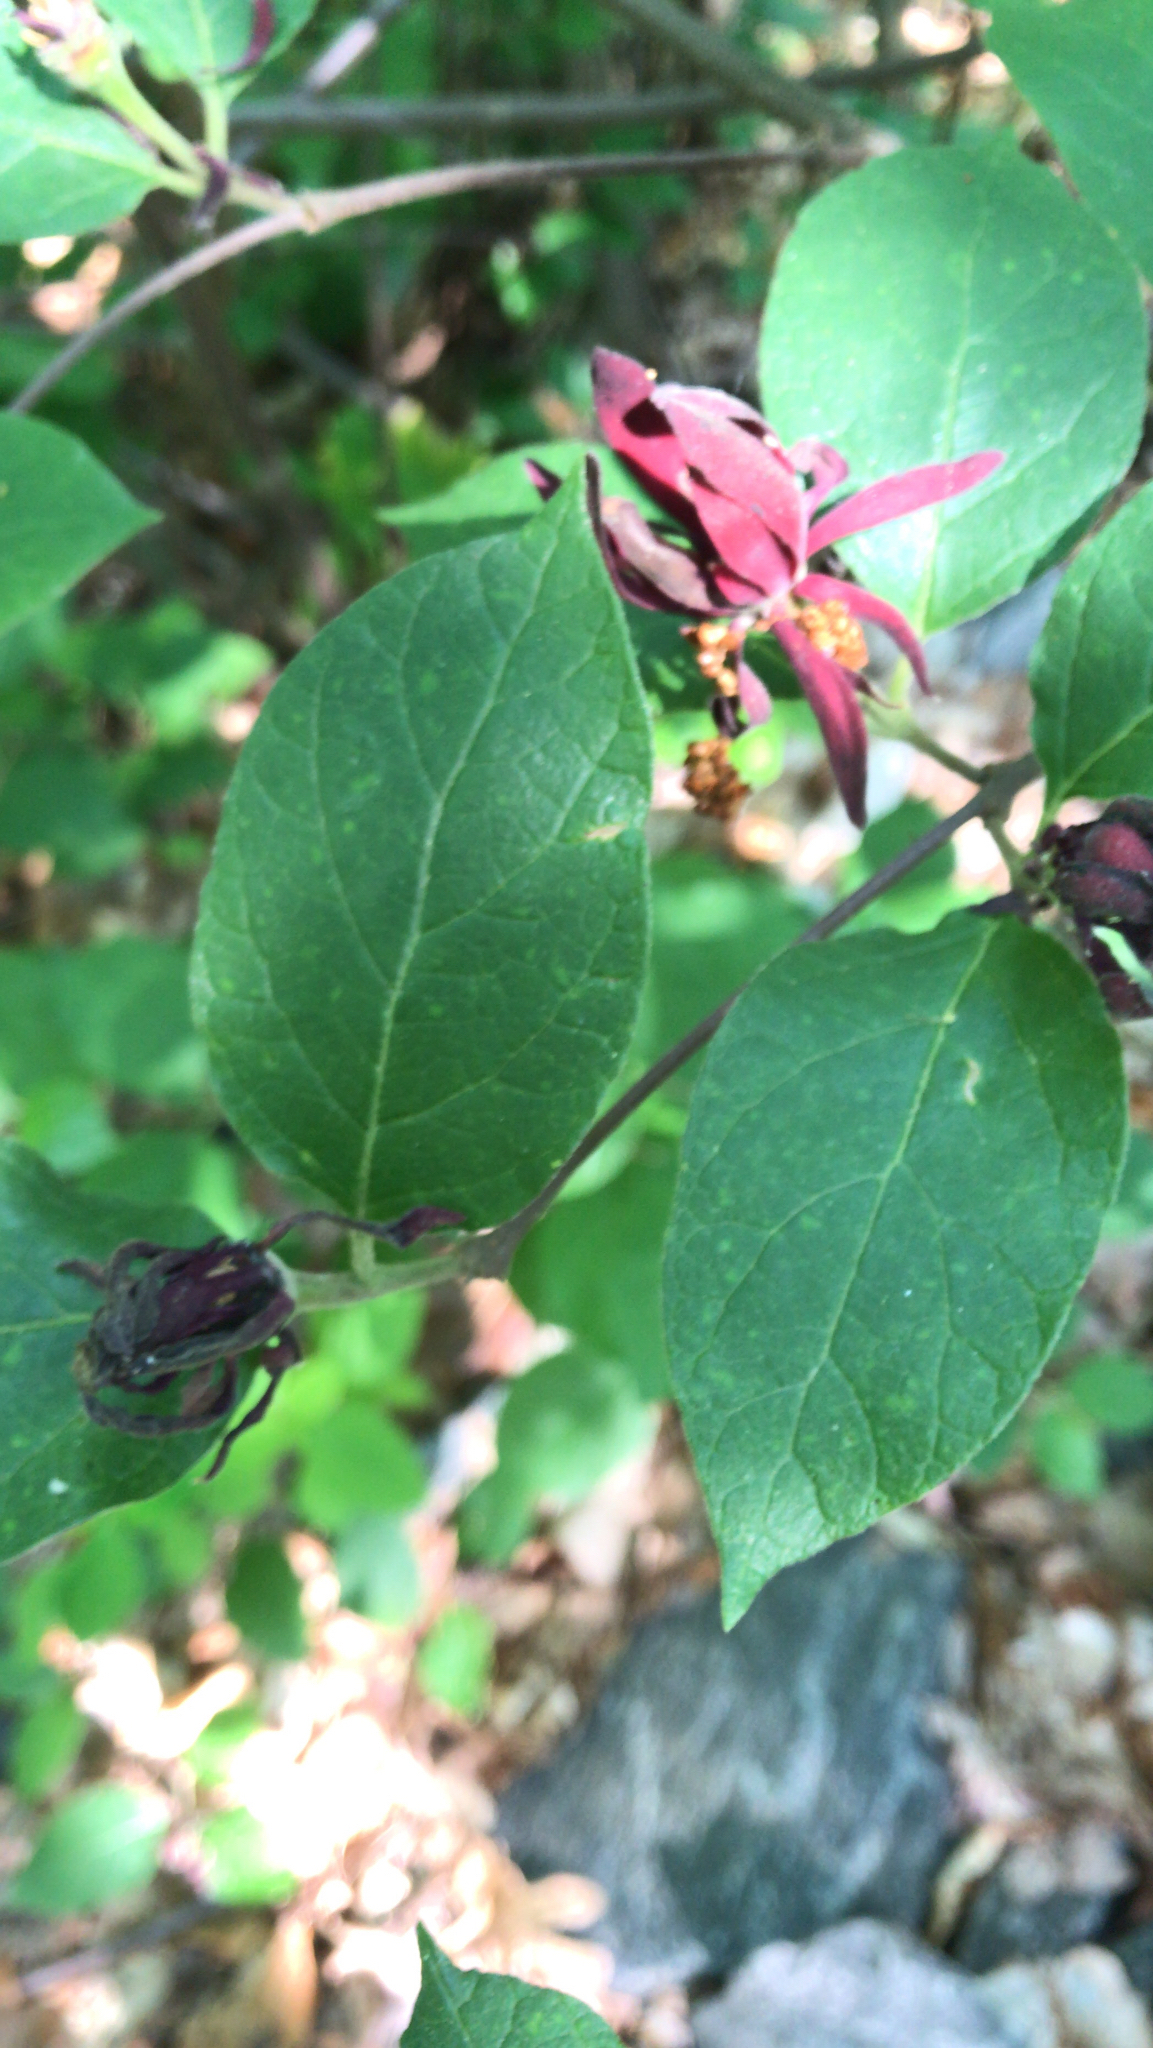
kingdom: Plantae
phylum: Tracheophyta
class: Magnoliopsida
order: Laurales
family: Calycanthaceae
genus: Calycanthus
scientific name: Calycanthus floridus
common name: Carolina-allspice
